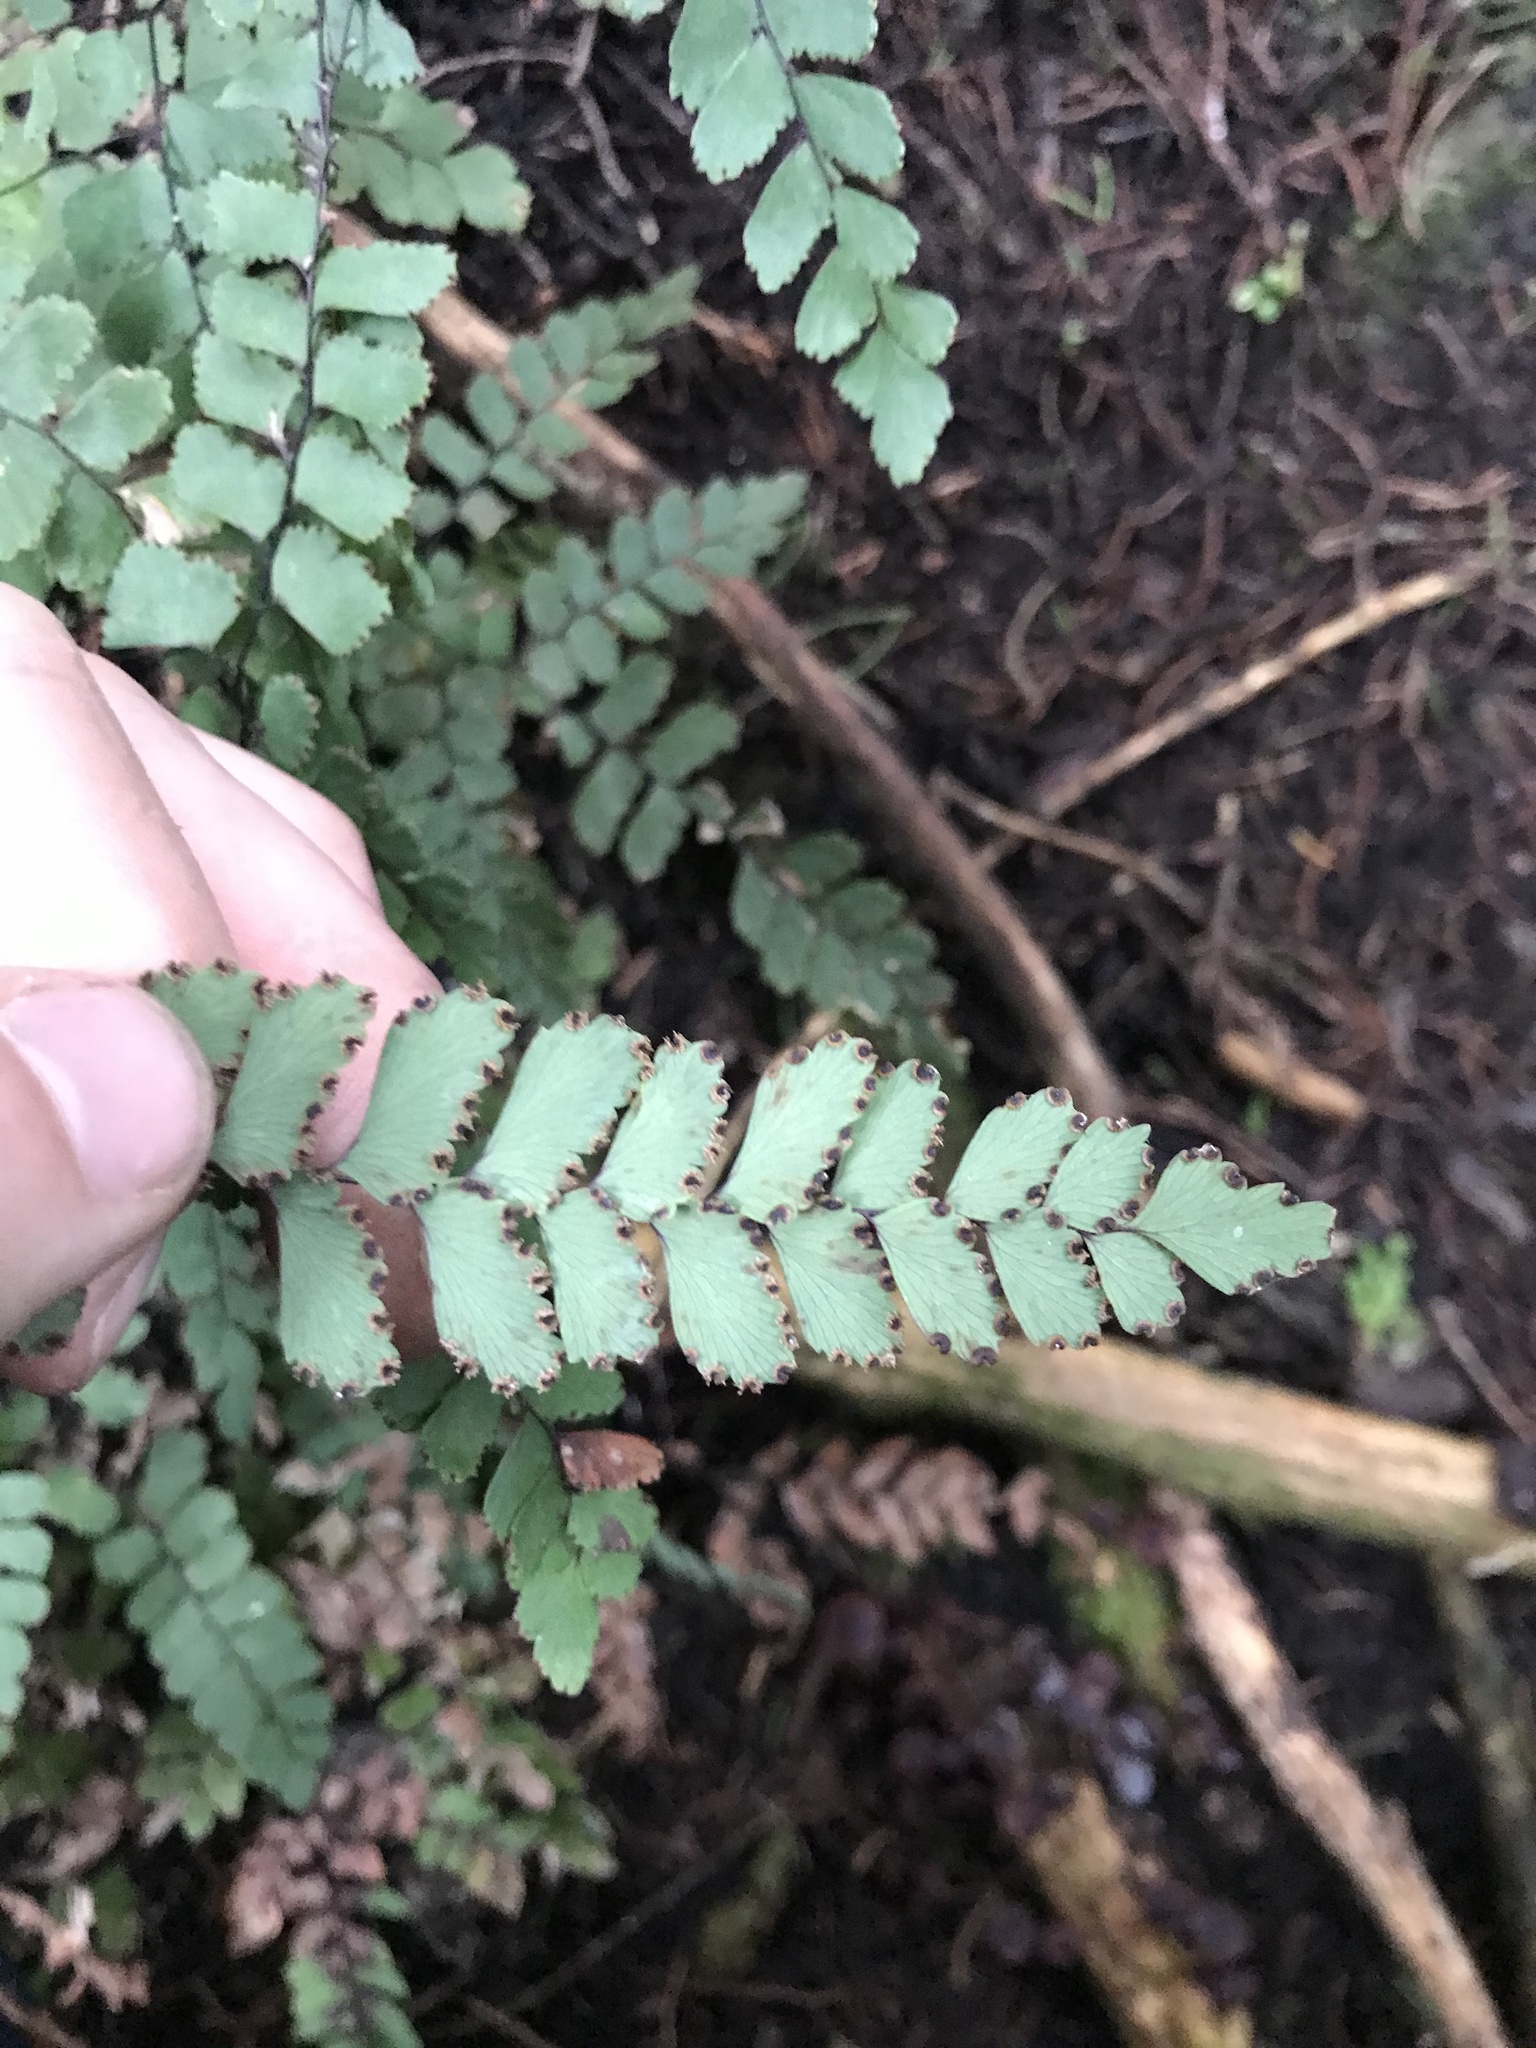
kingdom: Plantae
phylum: Tracheophyta
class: Polypodiopsida
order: Polypodiales
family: Pteridaceae
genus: Adiantum
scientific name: Adiantum cunninghamii
